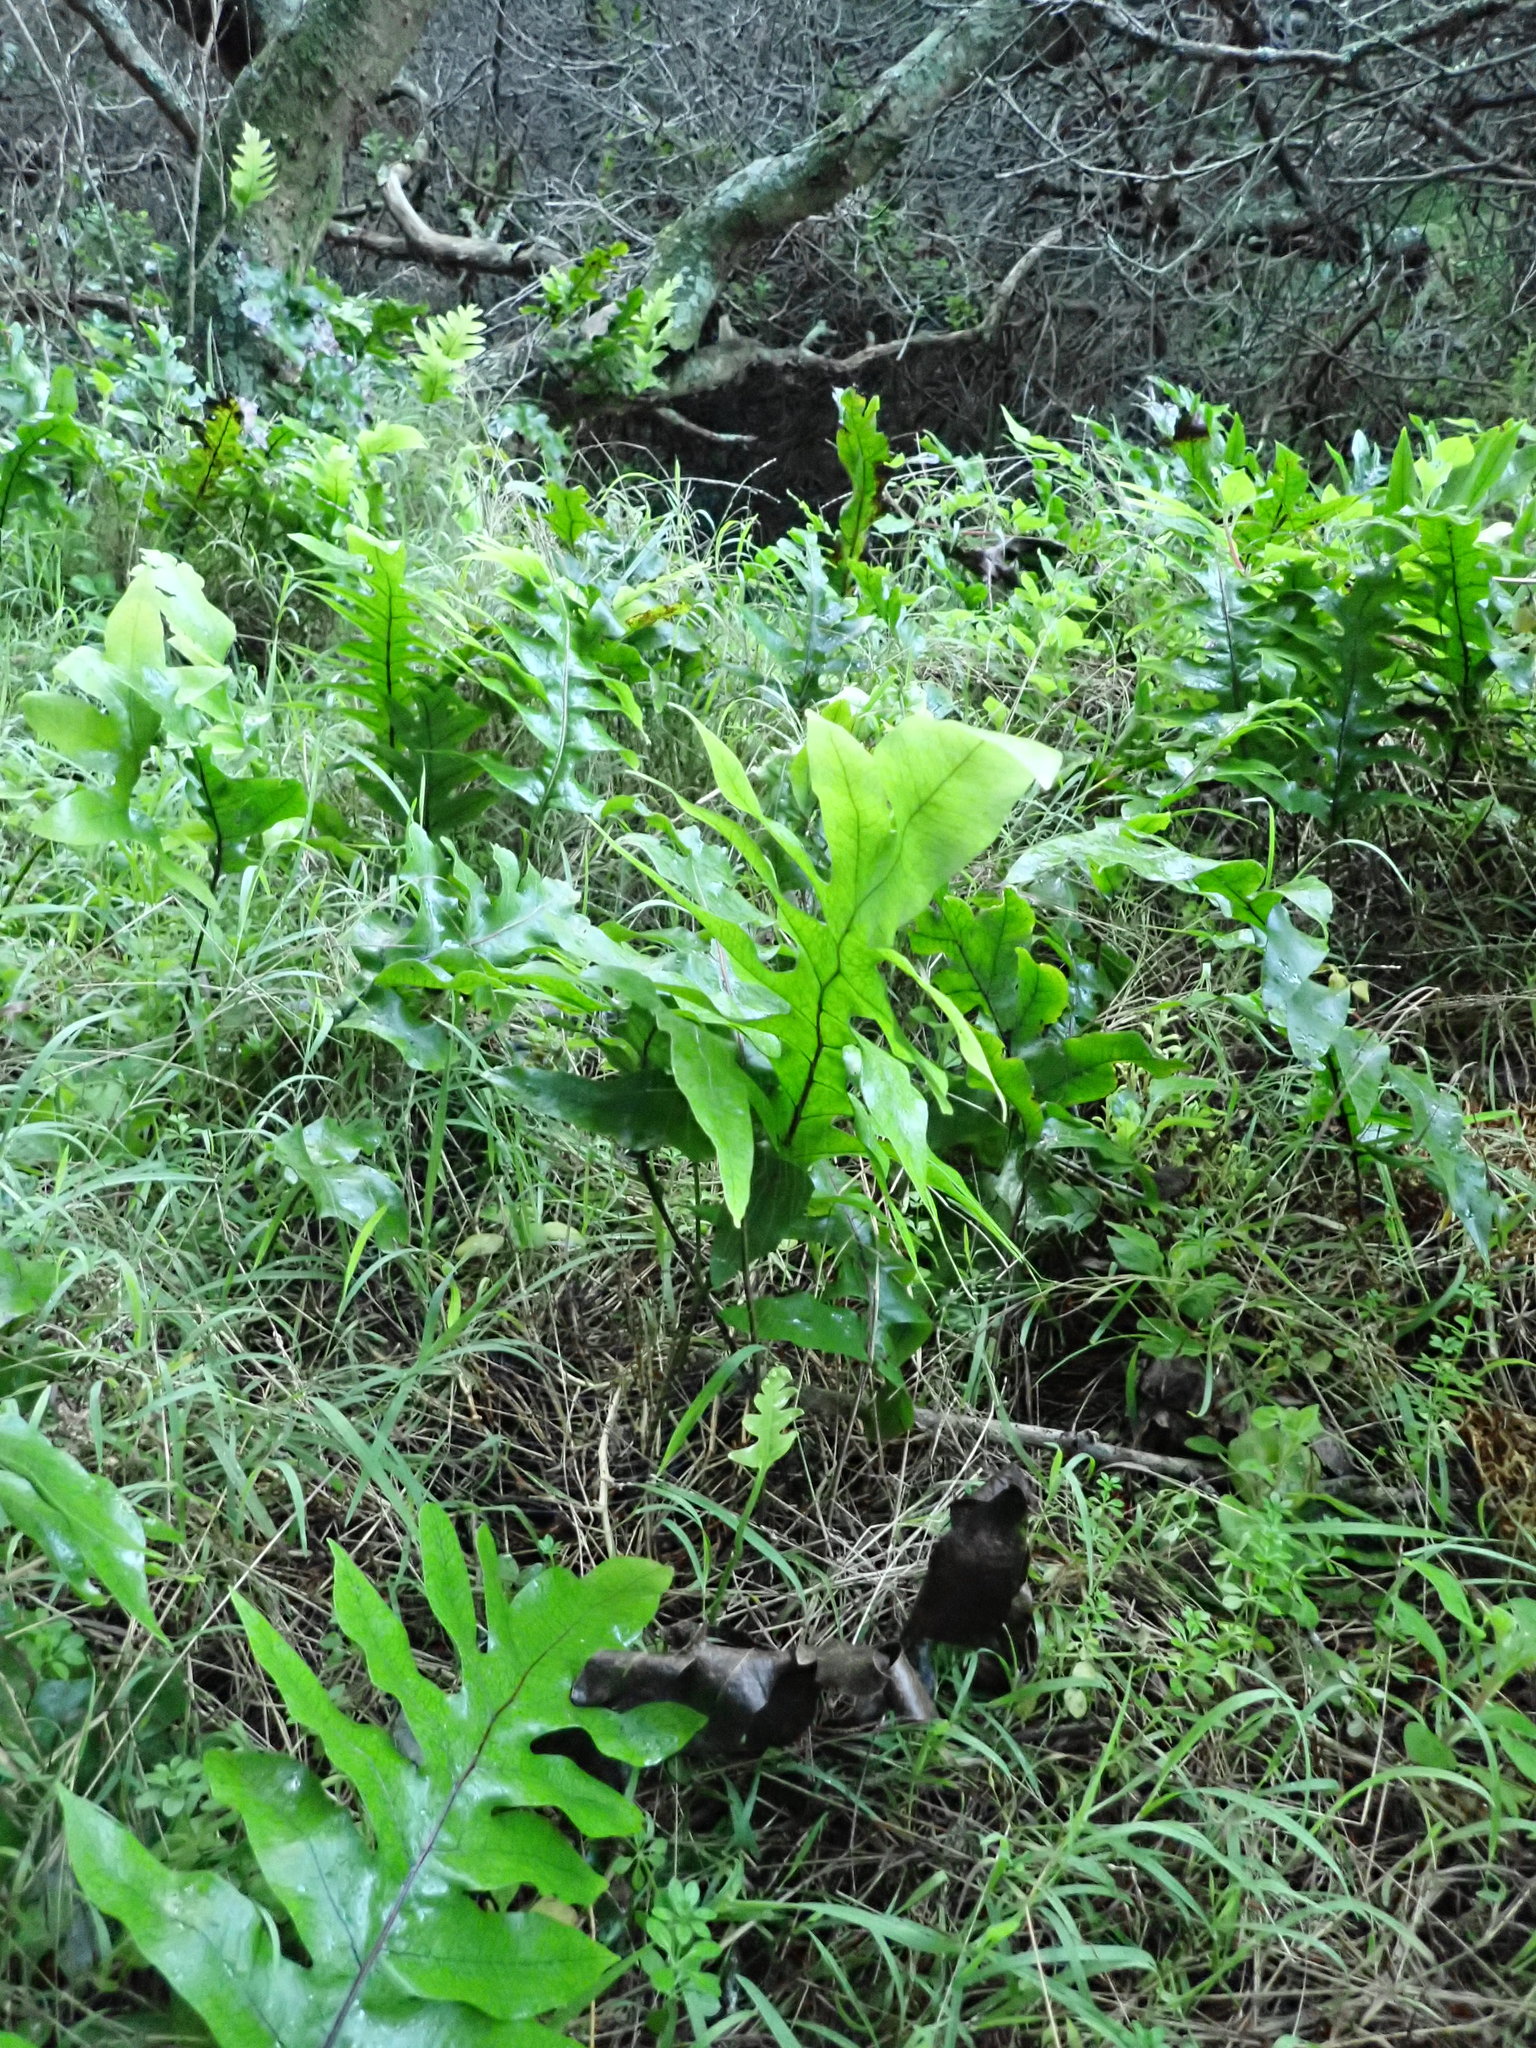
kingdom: Plantae
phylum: Tracheophyta
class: Polypodiopsida
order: Polypodiales
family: Polypodiaceae
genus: Lecanopteris
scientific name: Lecanopteris pustulata
